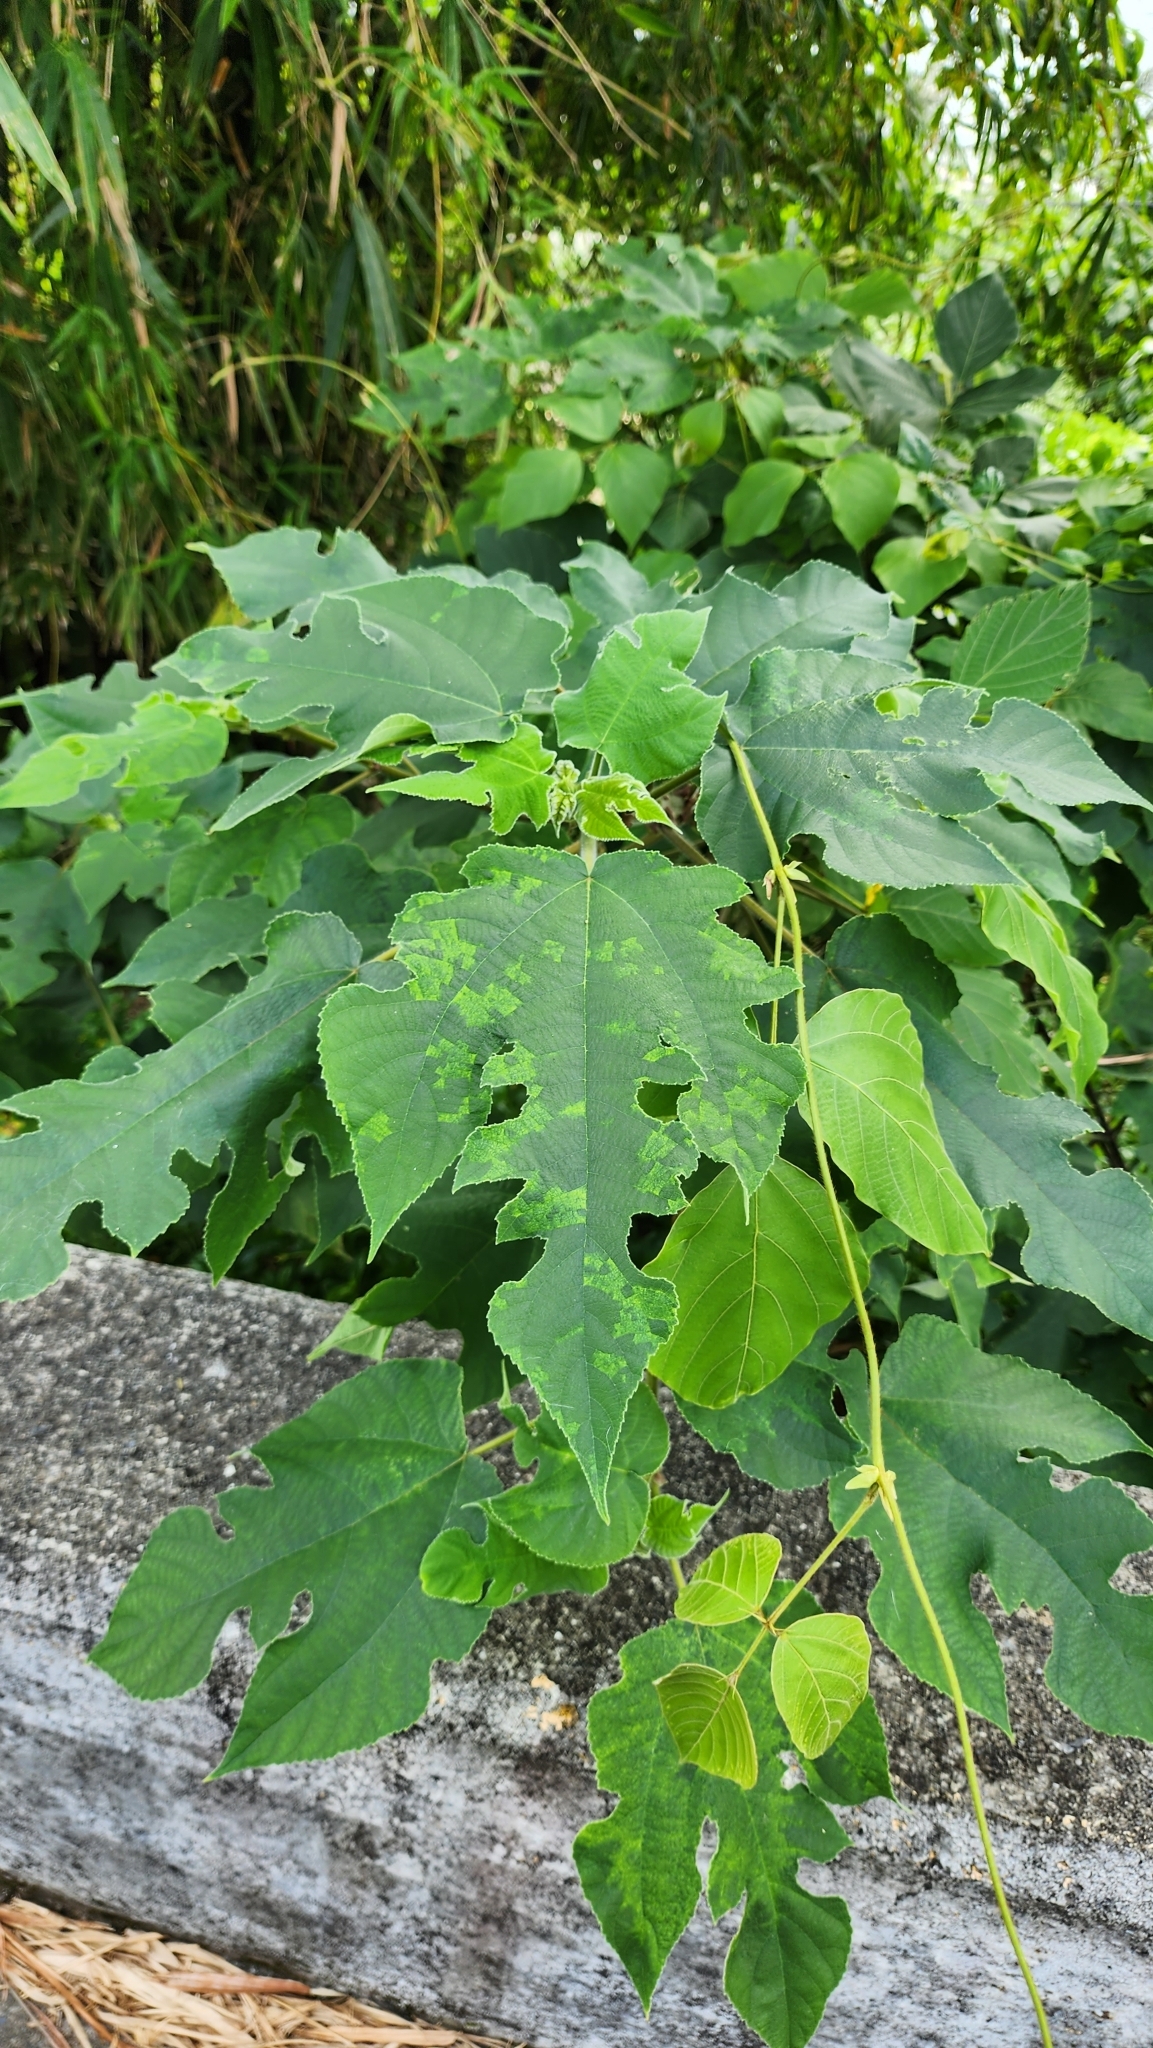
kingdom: Plantae
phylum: Tracheophyta
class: Magnoliopsida
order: Rosales
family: Moraceae
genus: Broussonetia
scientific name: Broussonetia papyrifera
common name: Paper mulberry
